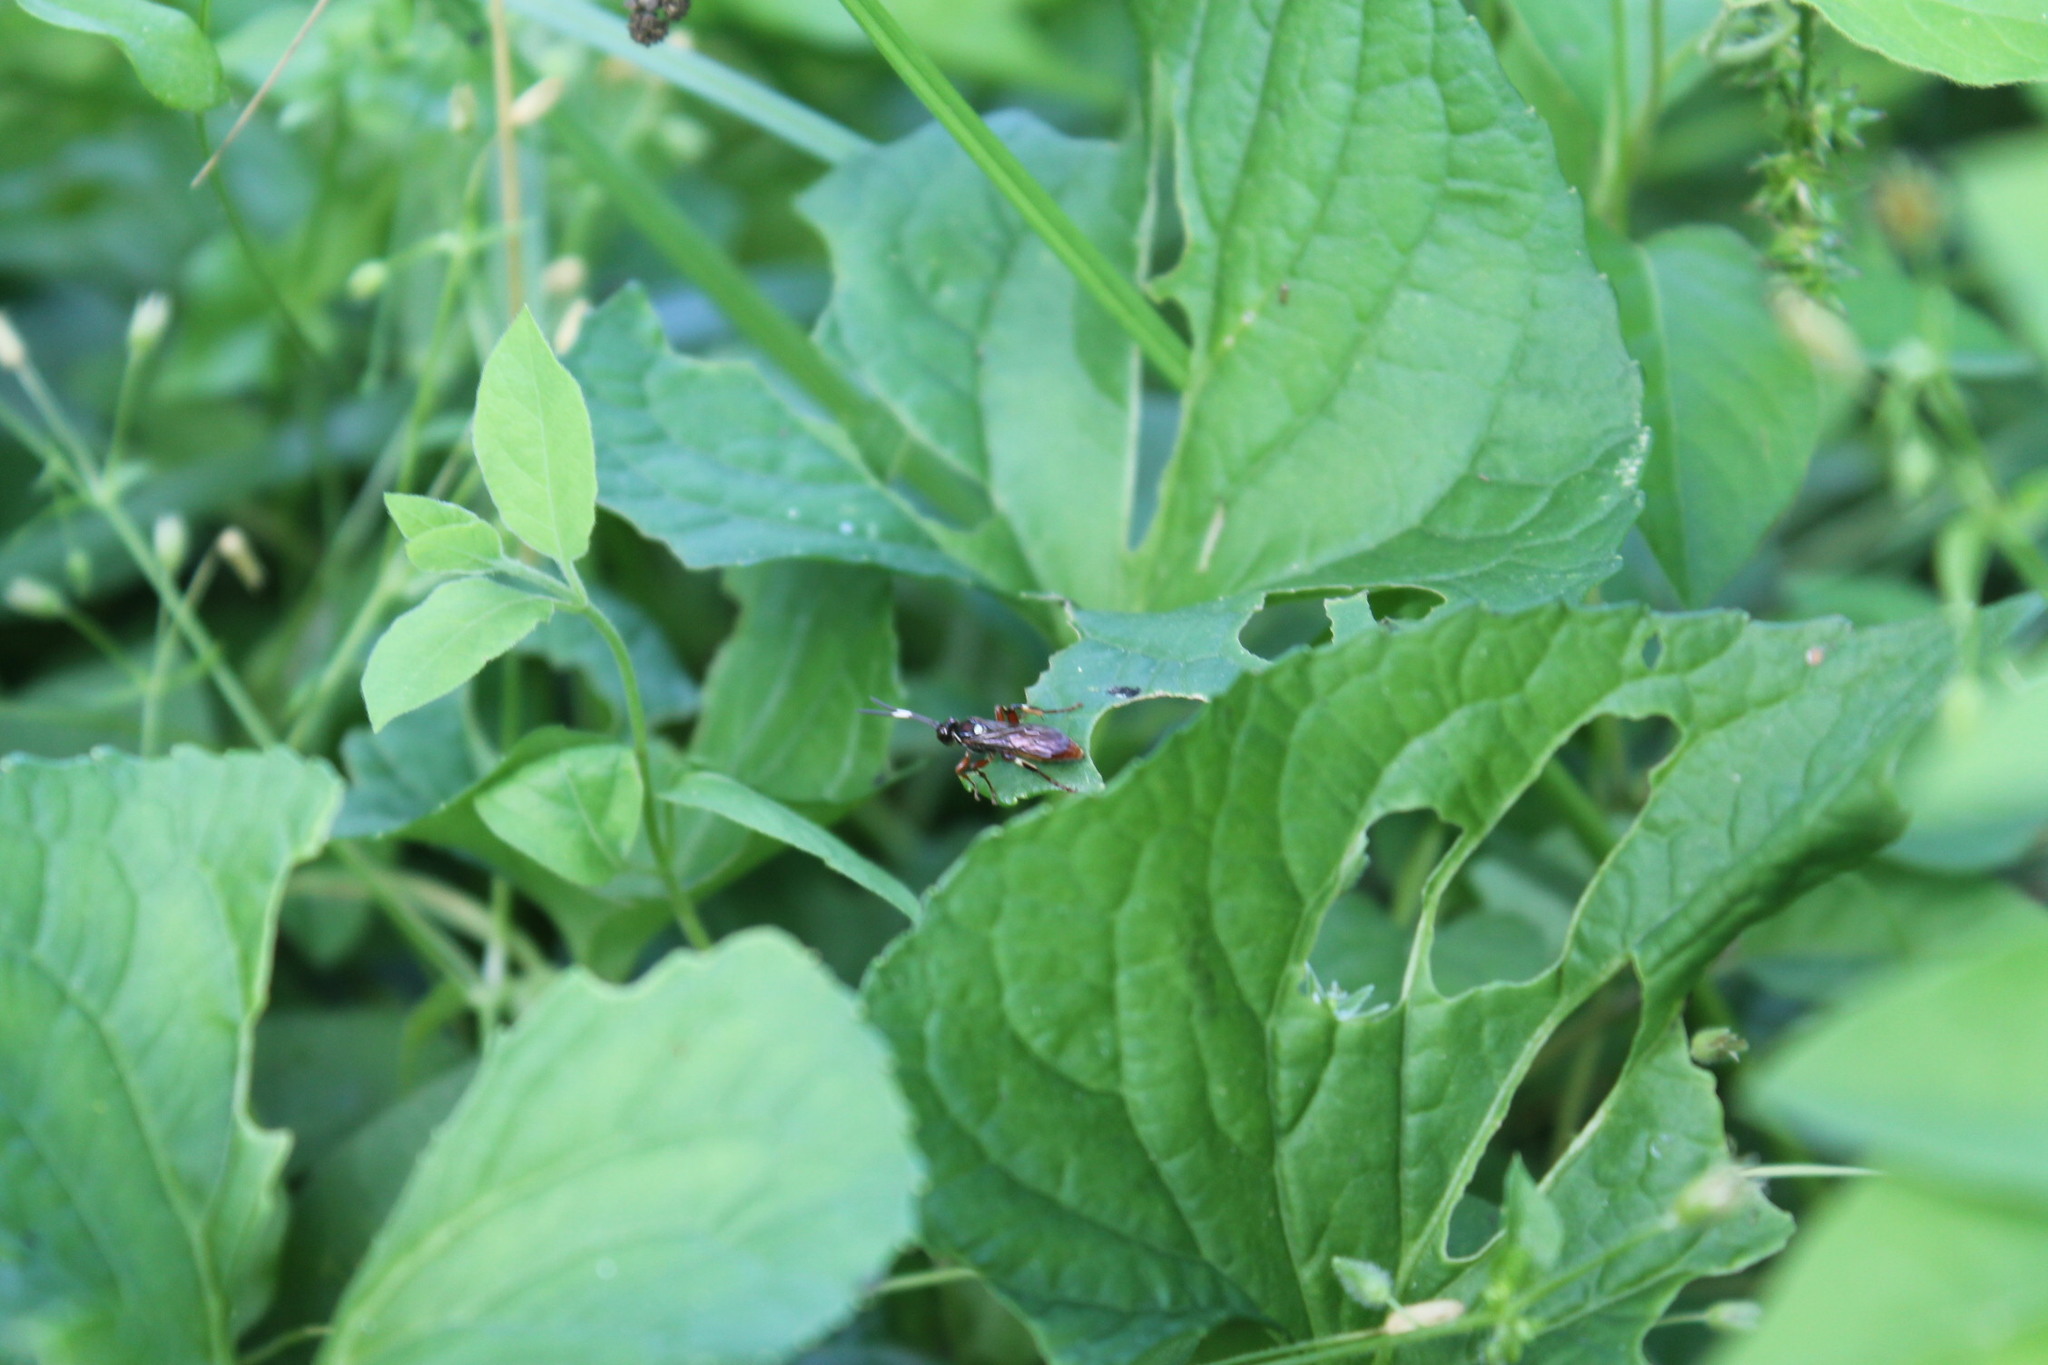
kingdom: Animalia
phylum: Arthropoda
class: Insecta
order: Hymenoptera
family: Ichneumonidae
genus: Diplazon
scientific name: Diplazon laetatorius
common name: Parasitoid wasp
